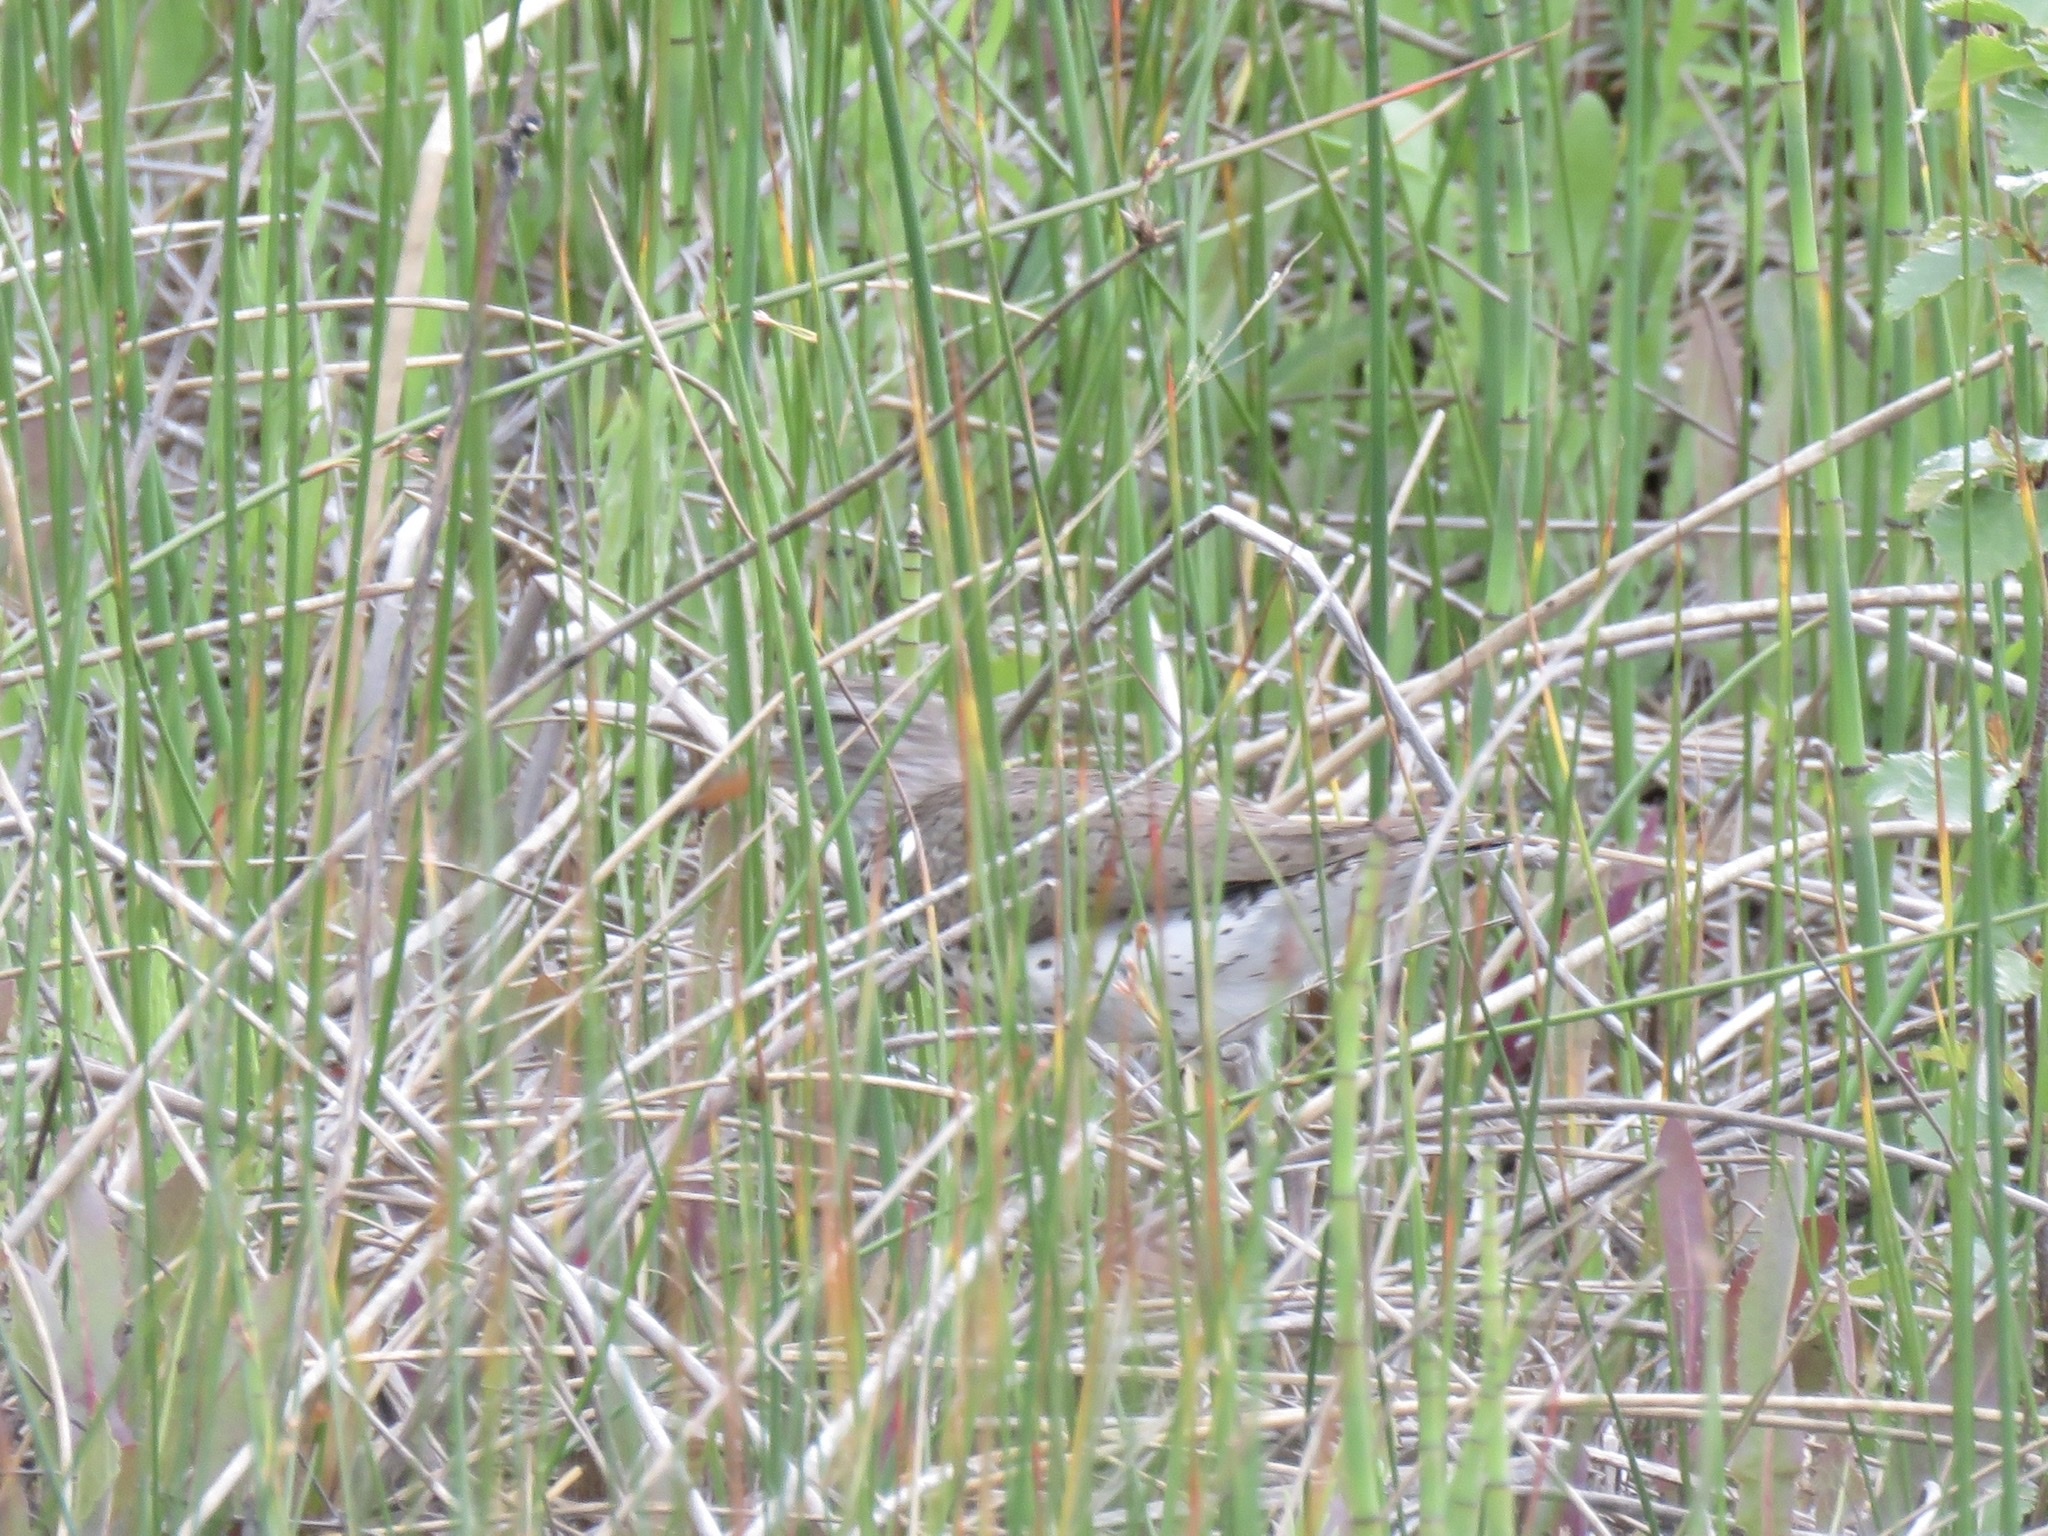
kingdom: Animalia
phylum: Chordata
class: Aves
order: Charadriiformes
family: Scolopacidae
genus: Actitis
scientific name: Actitis macularius
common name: Spotted sandpiper
